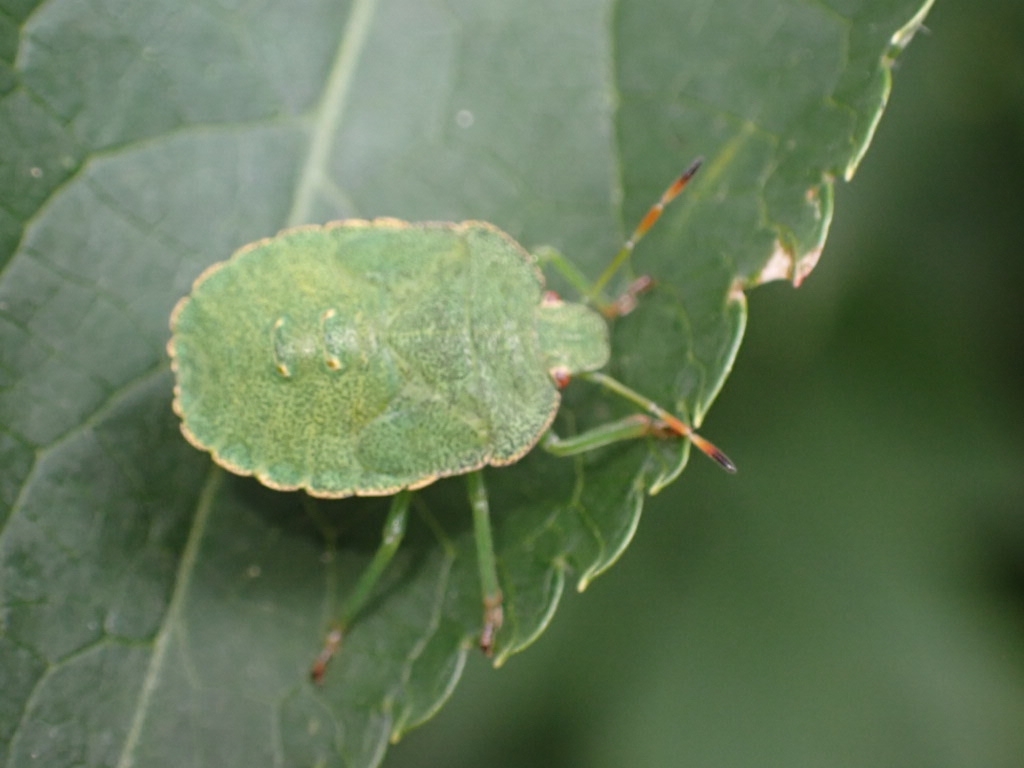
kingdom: Animalia
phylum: Arthropoda
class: Insecta
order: Hemiptera
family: Pentatomidae
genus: Palomena
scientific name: Palomena prasina
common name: Green shieldbug
